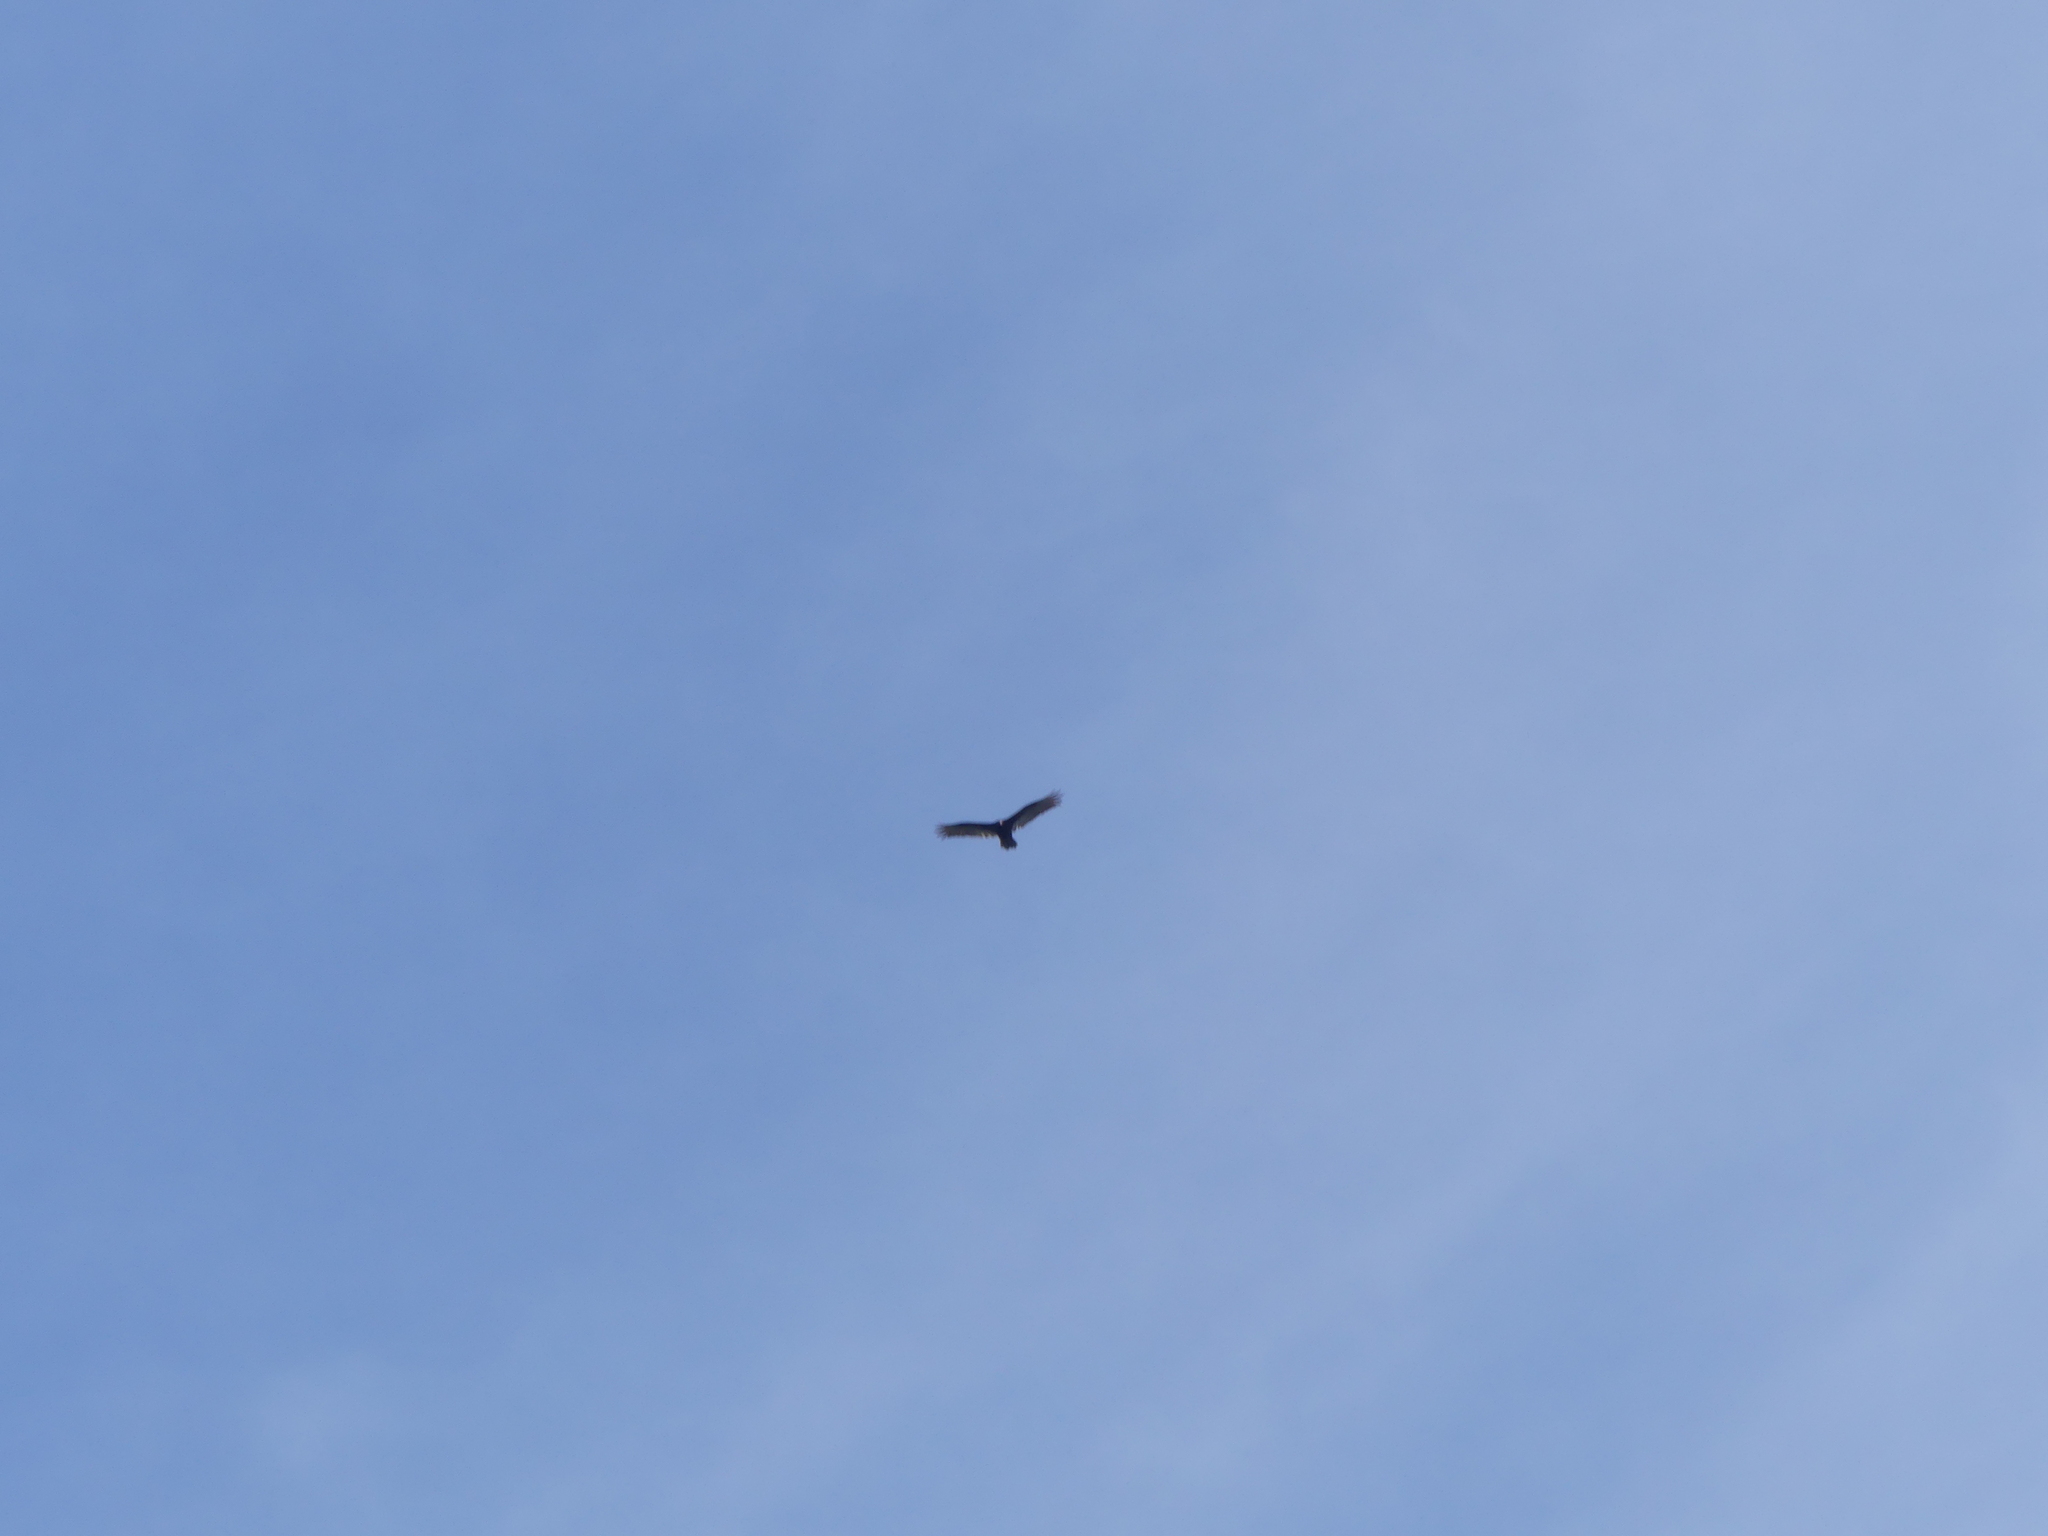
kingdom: Animalia
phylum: Chordata
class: Aves
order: Accipitriformes
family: Cathartidae
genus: Cathartes
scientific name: Cathartes aura
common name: Turkey vulture
